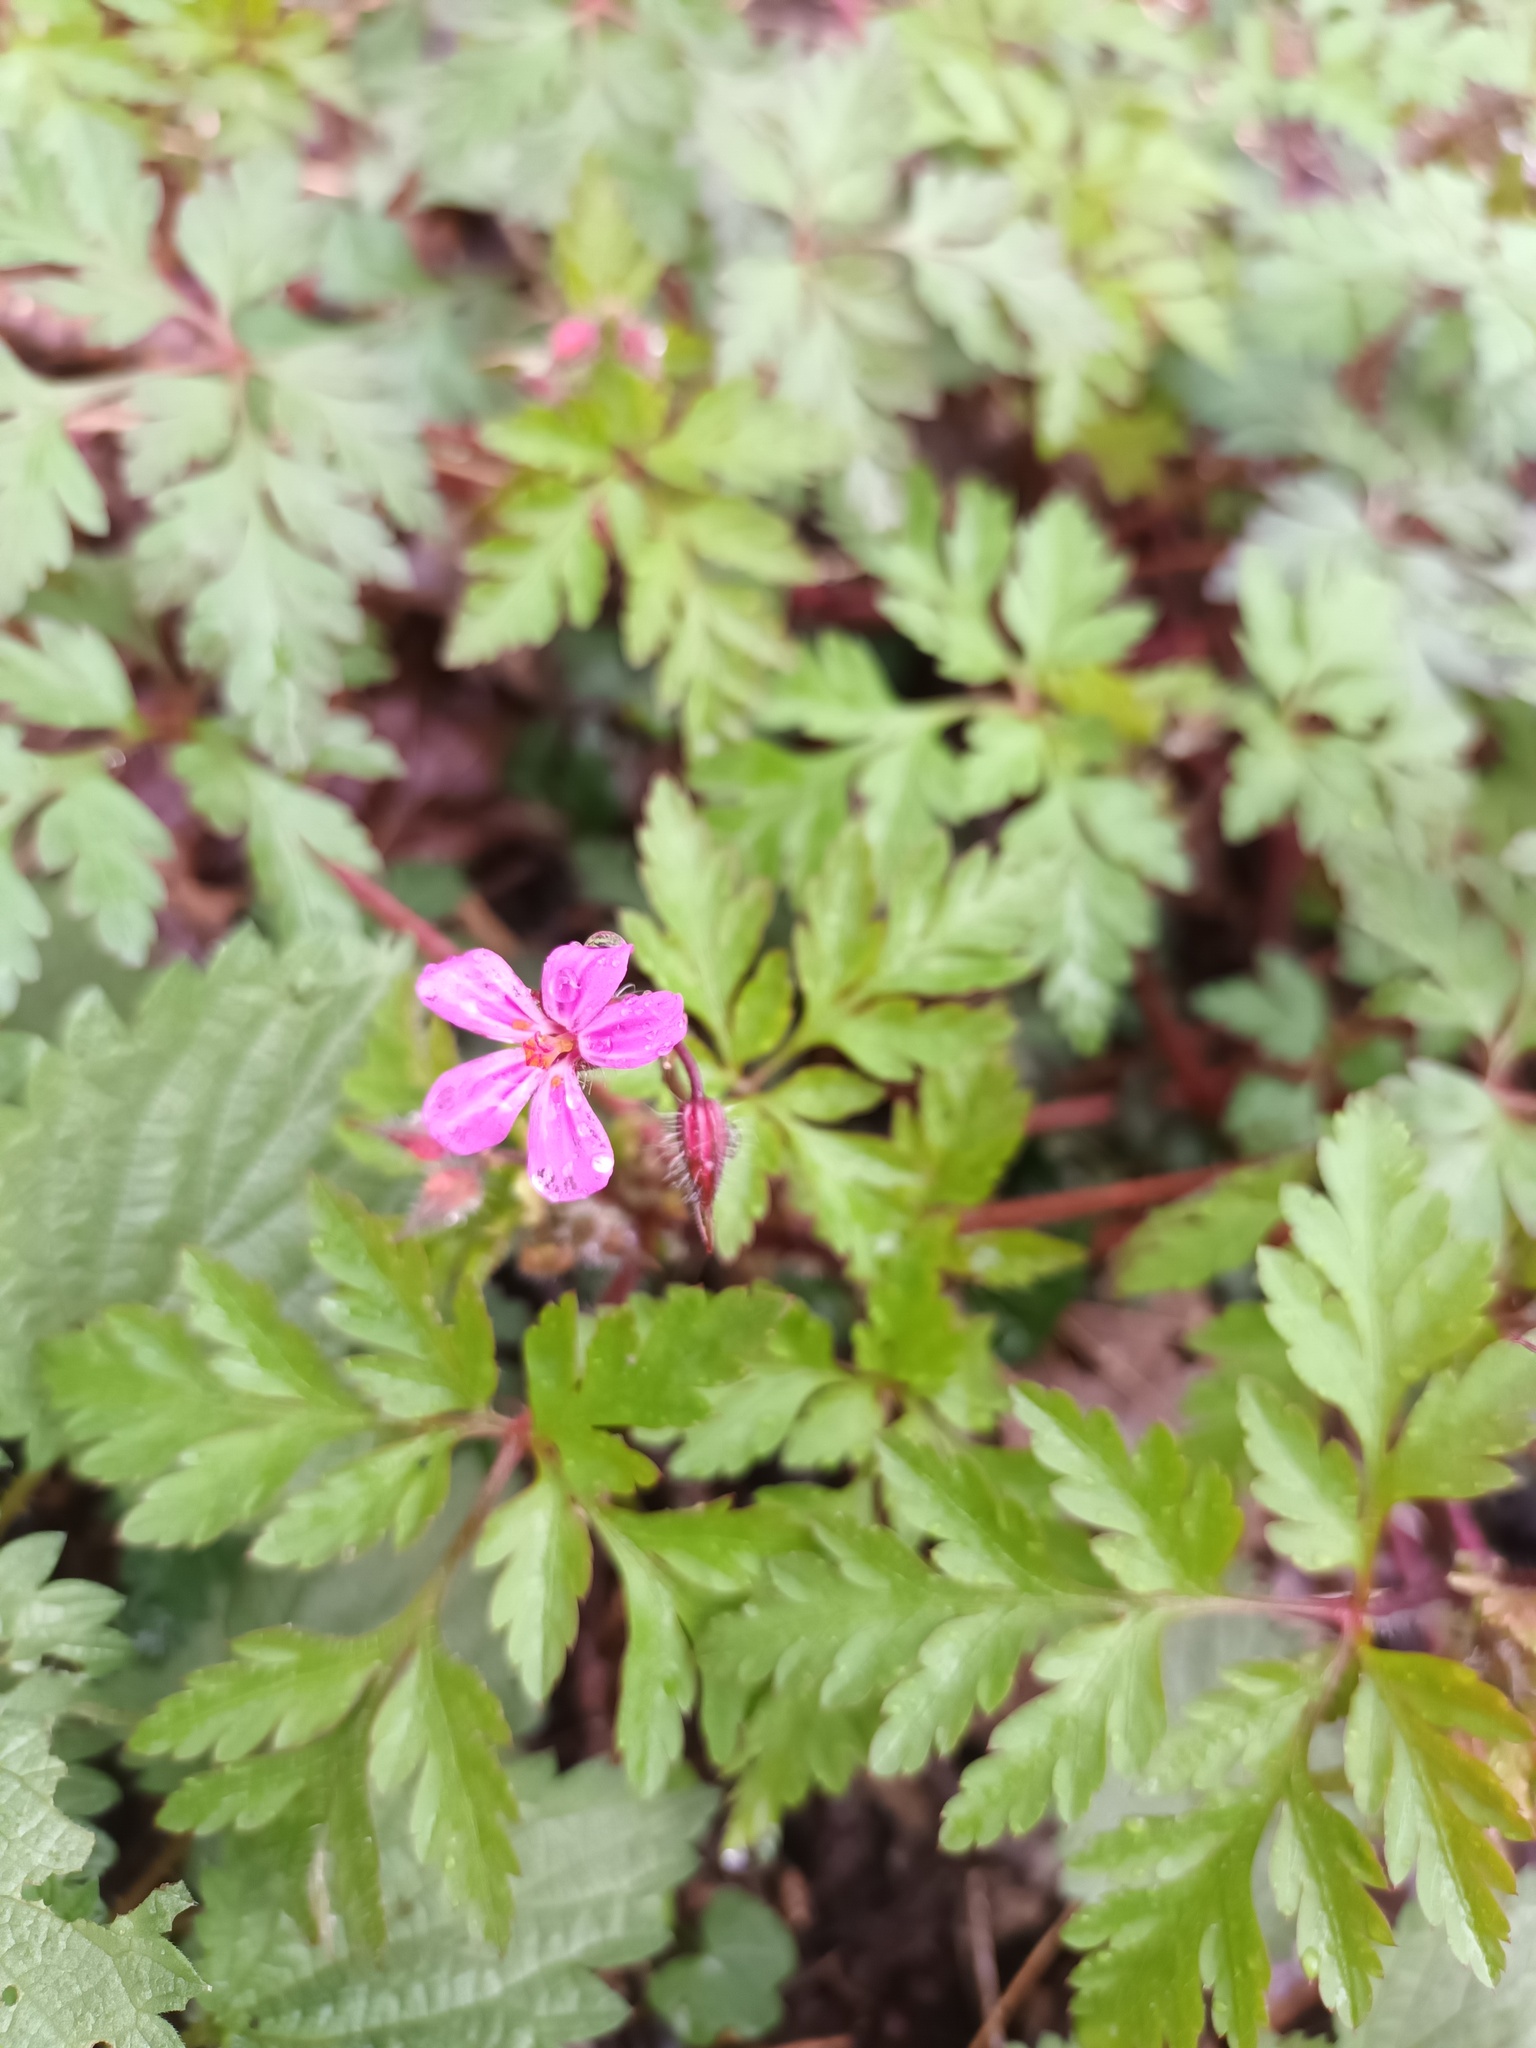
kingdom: Plantae
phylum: Tracheophyta
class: Magnoliopsida
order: Geraniales
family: Geraniaceae
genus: Geranium
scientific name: Geranium robertianum
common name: Herb-robert
